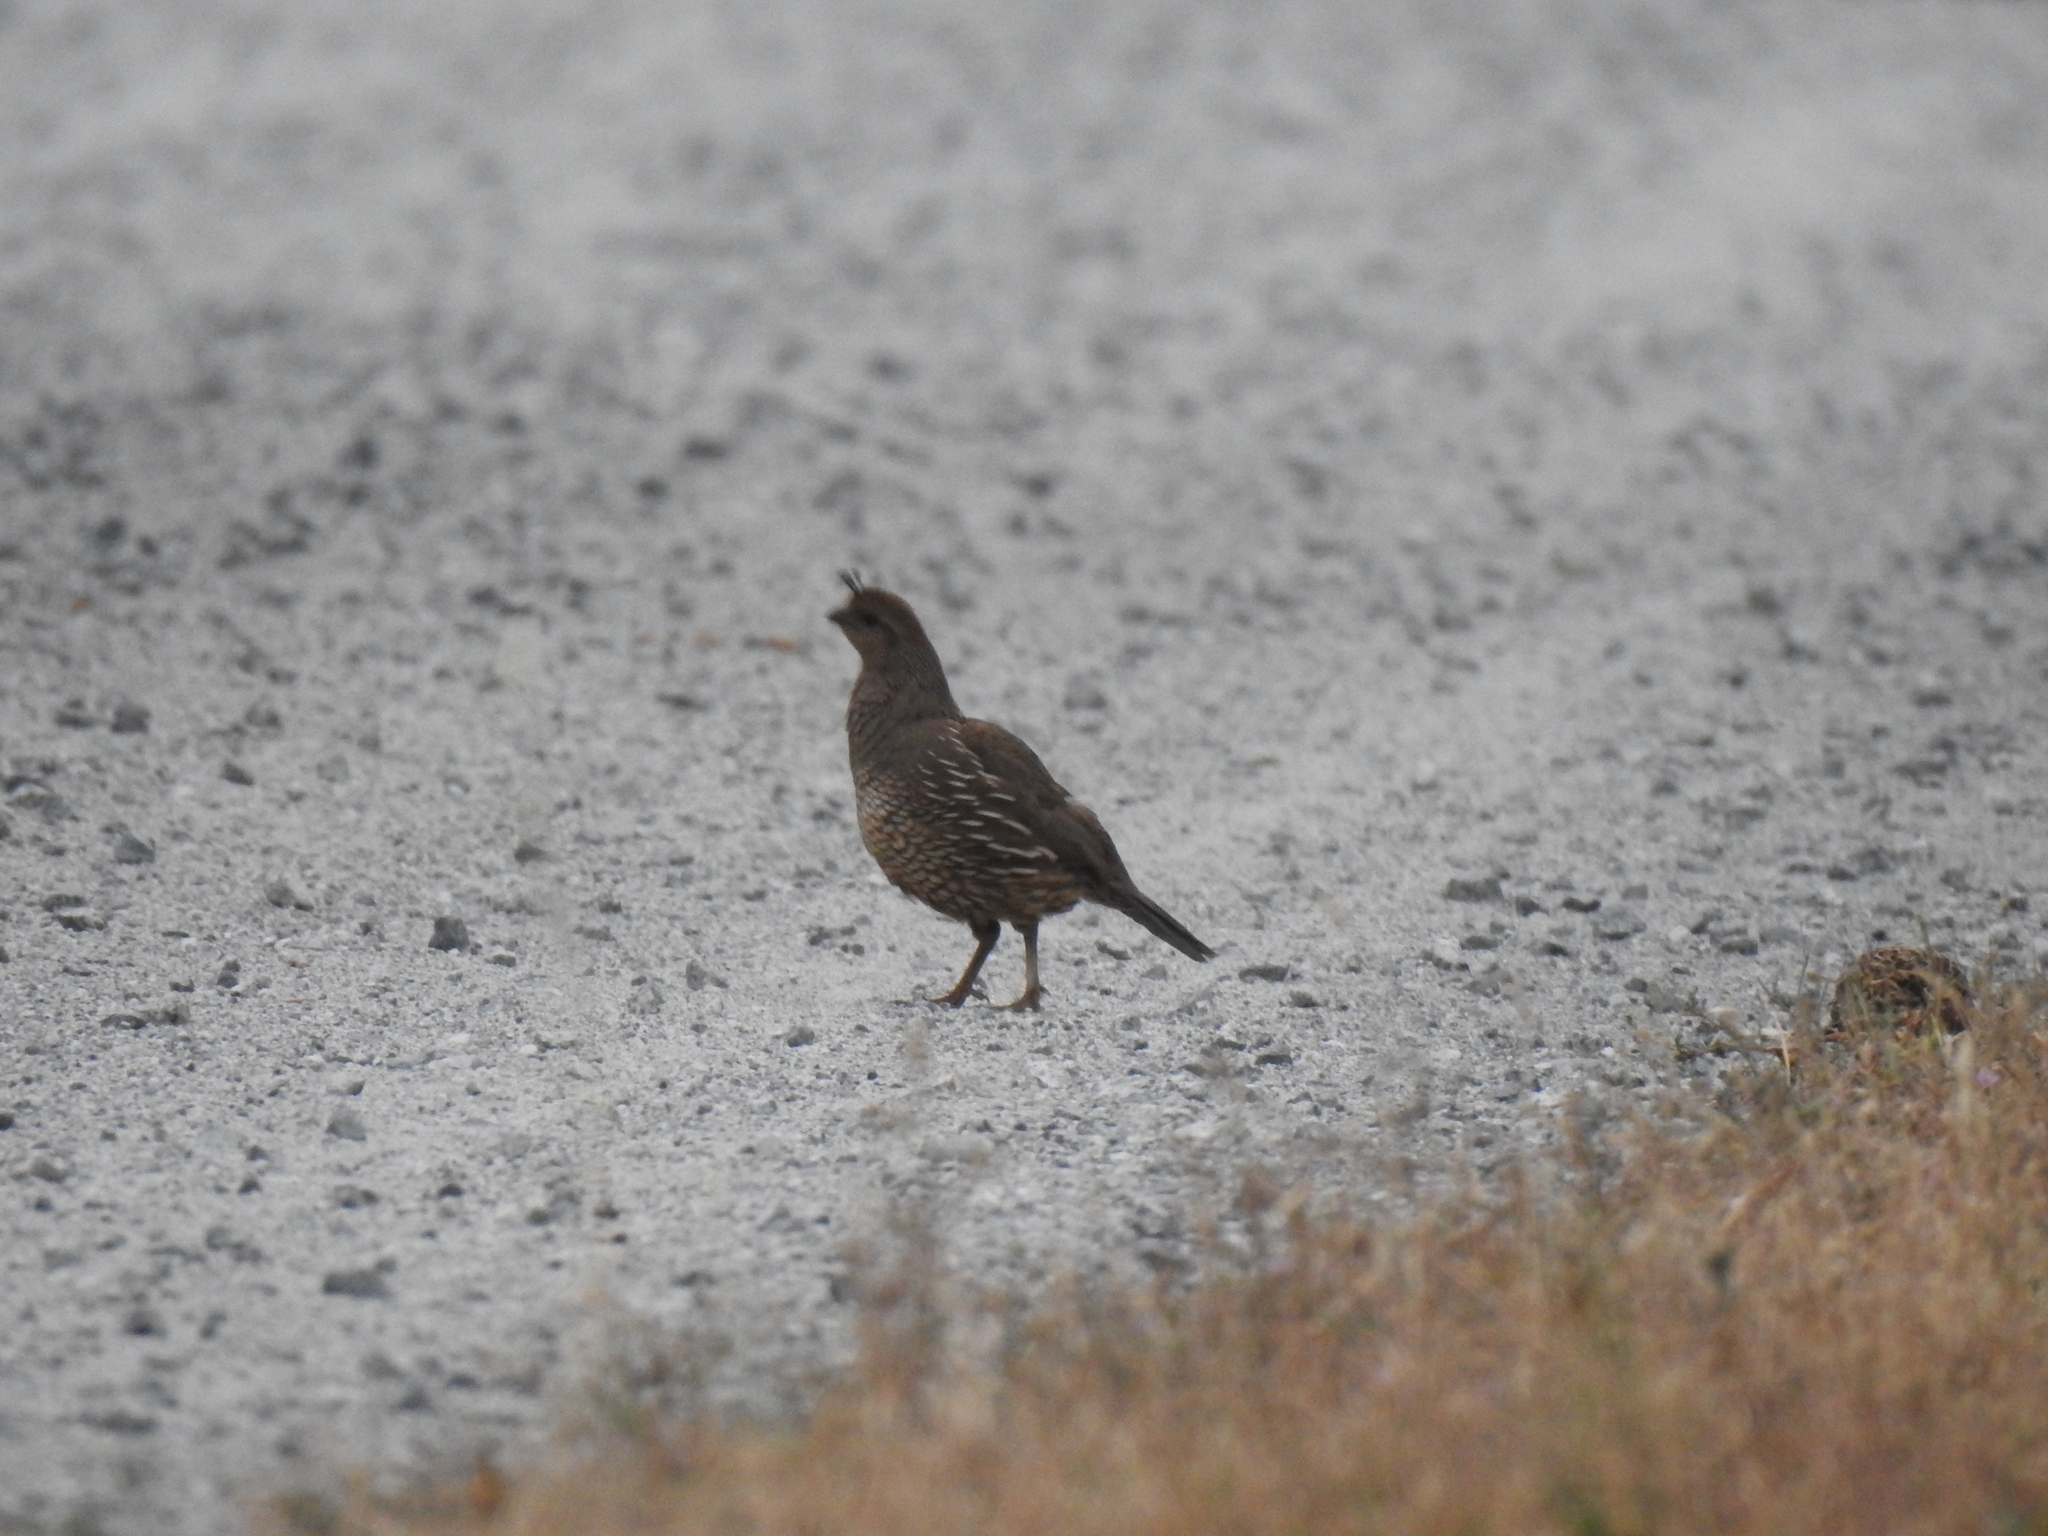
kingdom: Animalia
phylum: Chordata
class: Aves
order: Galliformes
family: Odontophoridae
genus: Callipepla
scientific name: Callipepla californica
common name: California quail
